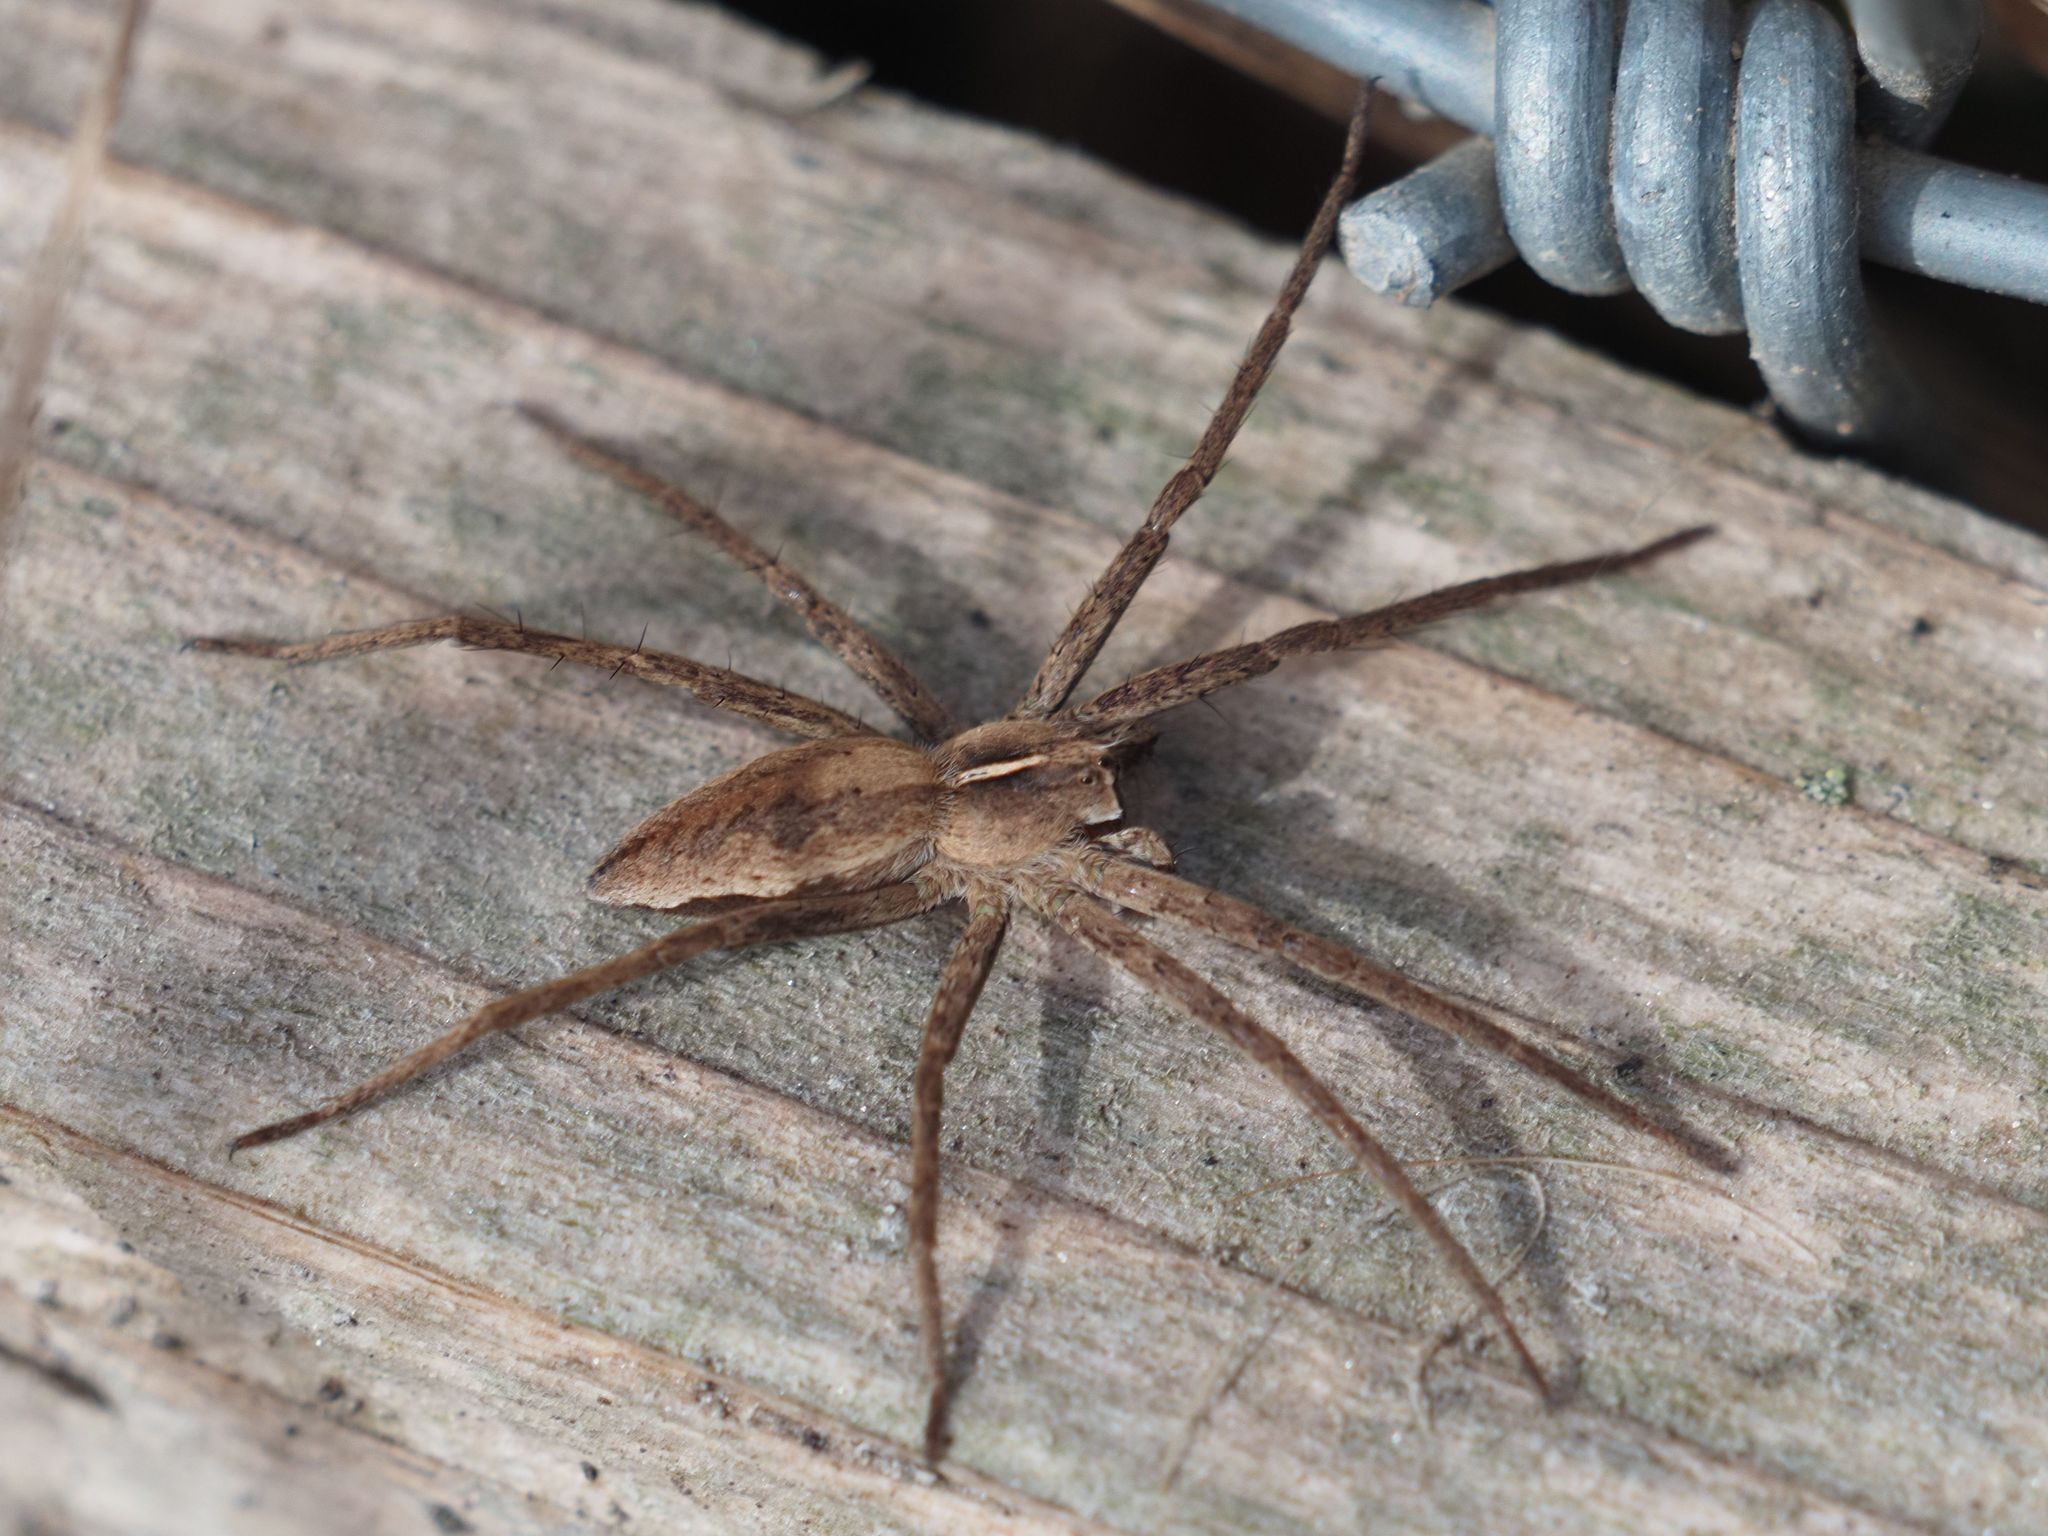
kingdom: Animalia
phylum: Arthropoda
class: Arachnida
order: Araneae
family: Pisauridae
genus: Pisaura
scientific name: Pisaura mirabilis
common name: Tent spider
